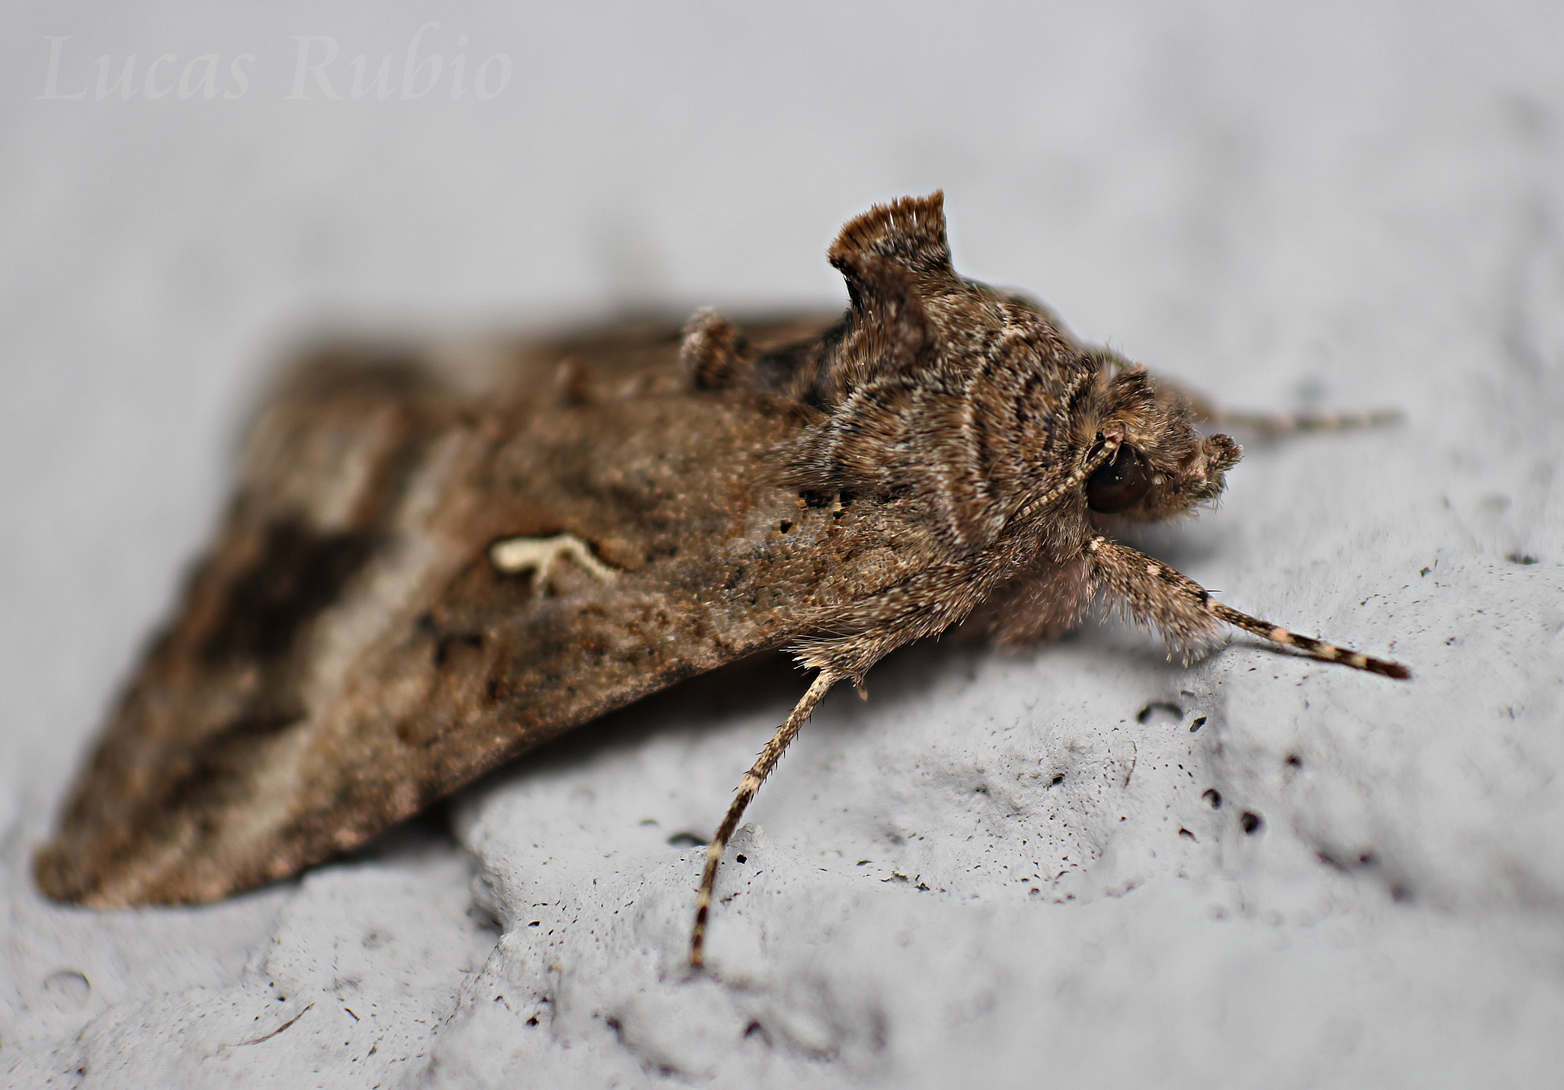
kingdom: Animalia
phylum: Arthropoda
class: Insecta
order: Lepidoptera
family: Noctuidae
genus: Rachiplusia
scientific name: Rachiplusia nu
